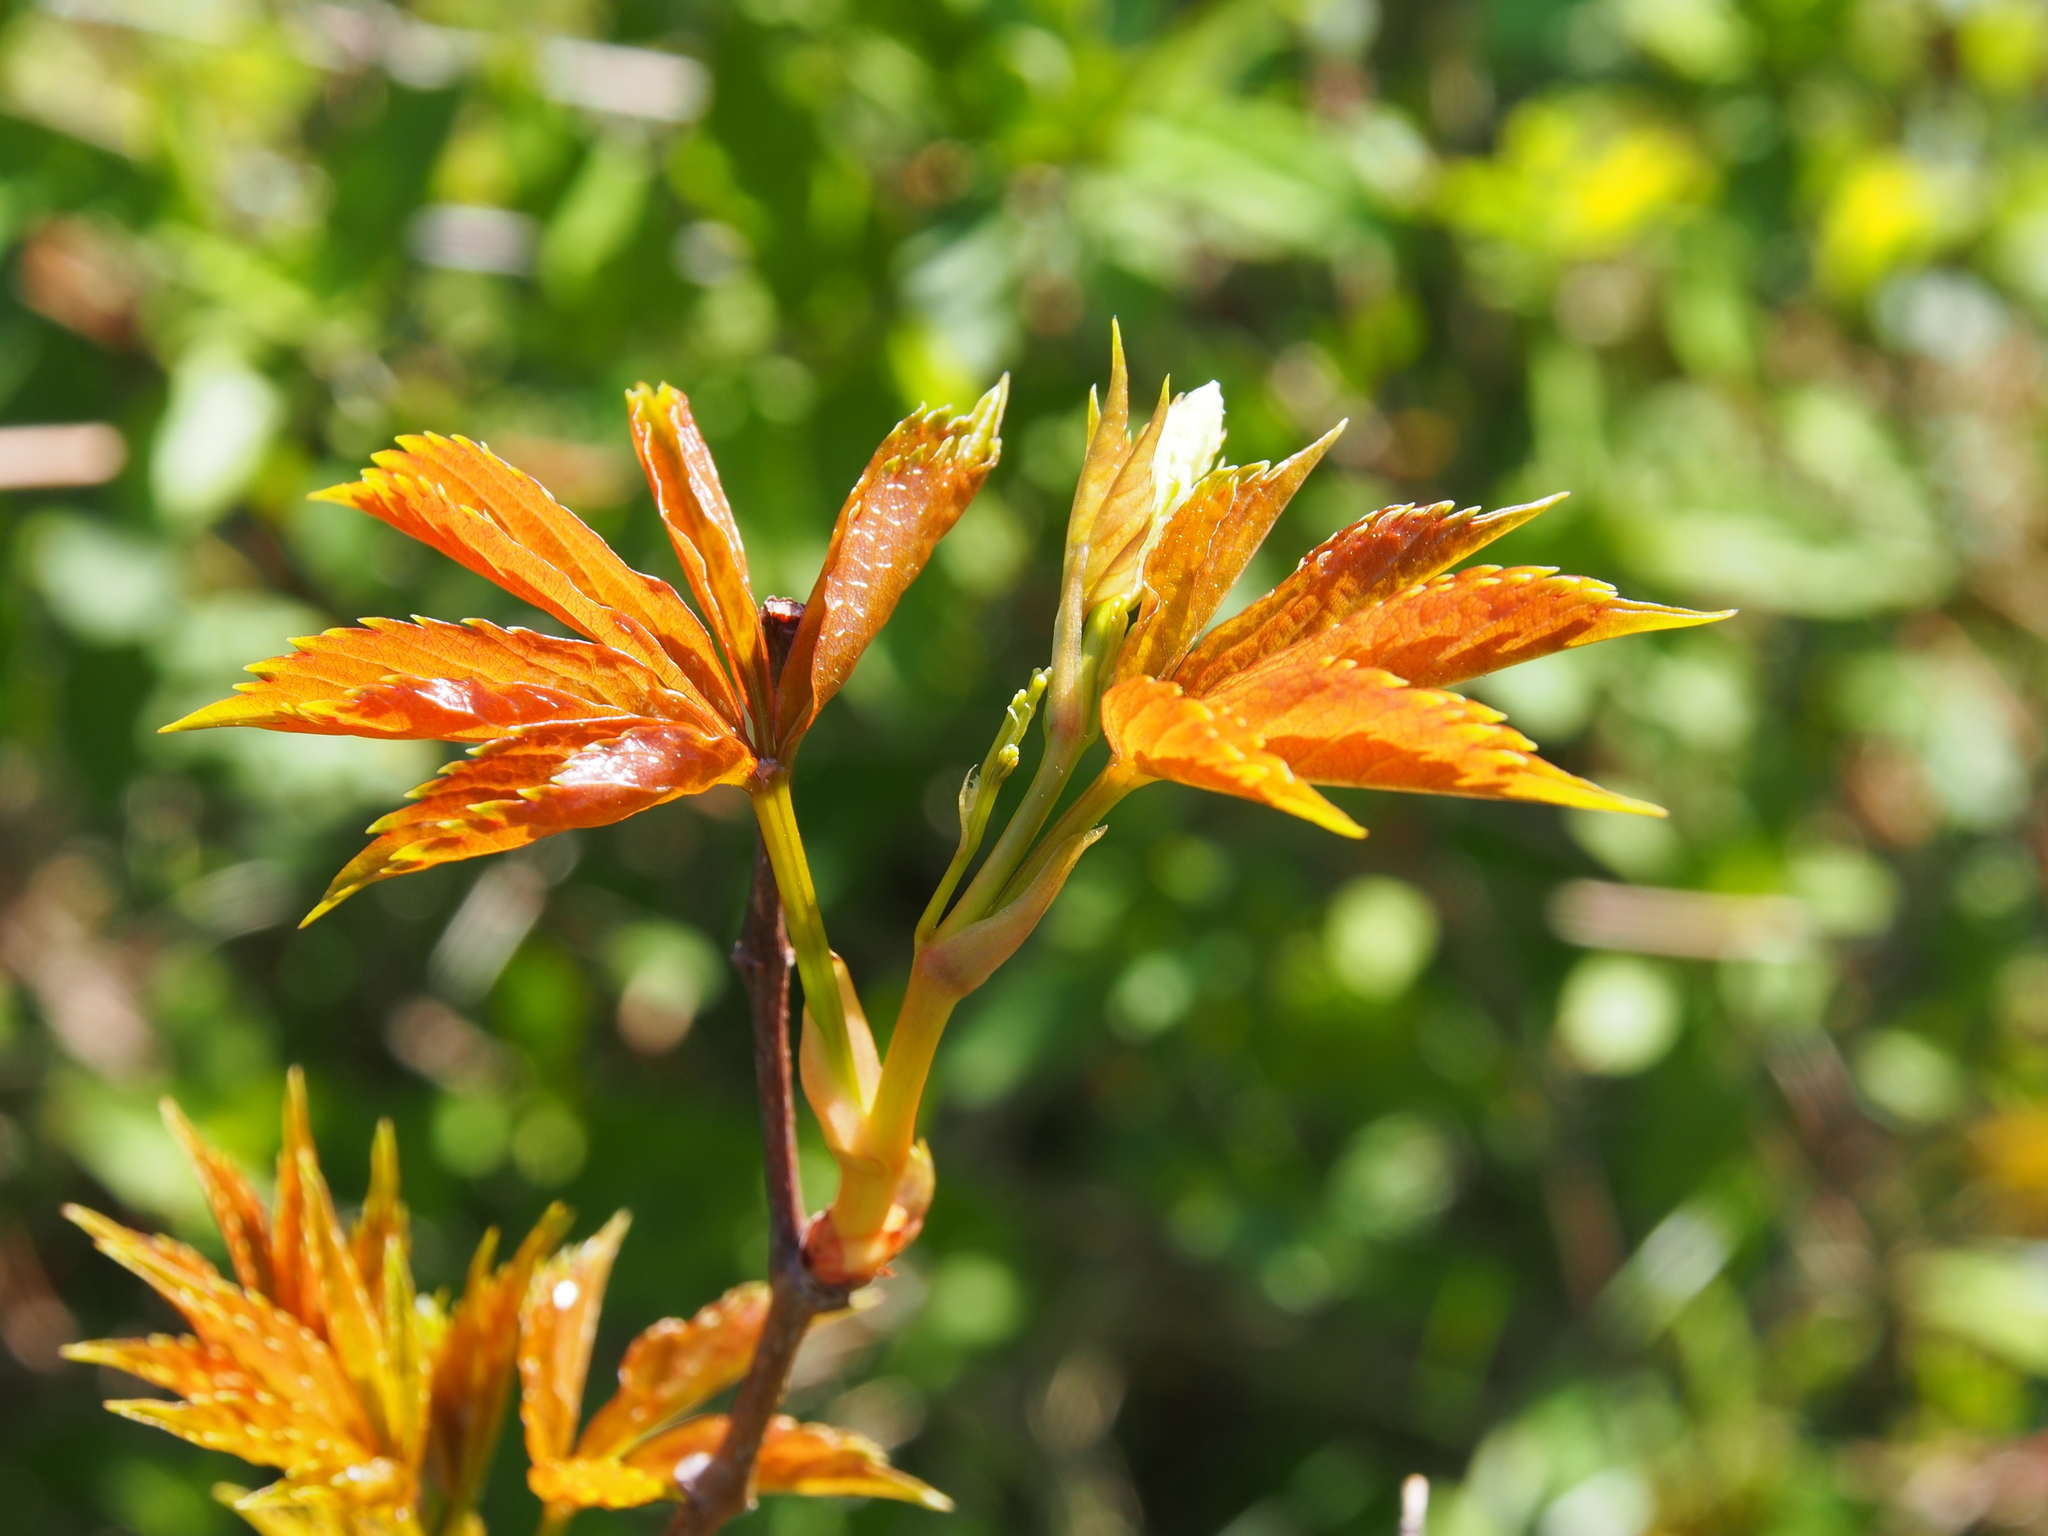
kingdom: Plantae
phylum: Tracheophyta
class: Magnoliopsida
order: Vitales
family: Vitaceae
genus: Parthenocissus
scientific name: Parthenocissus quinquefolia
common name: Virginia-creeper
